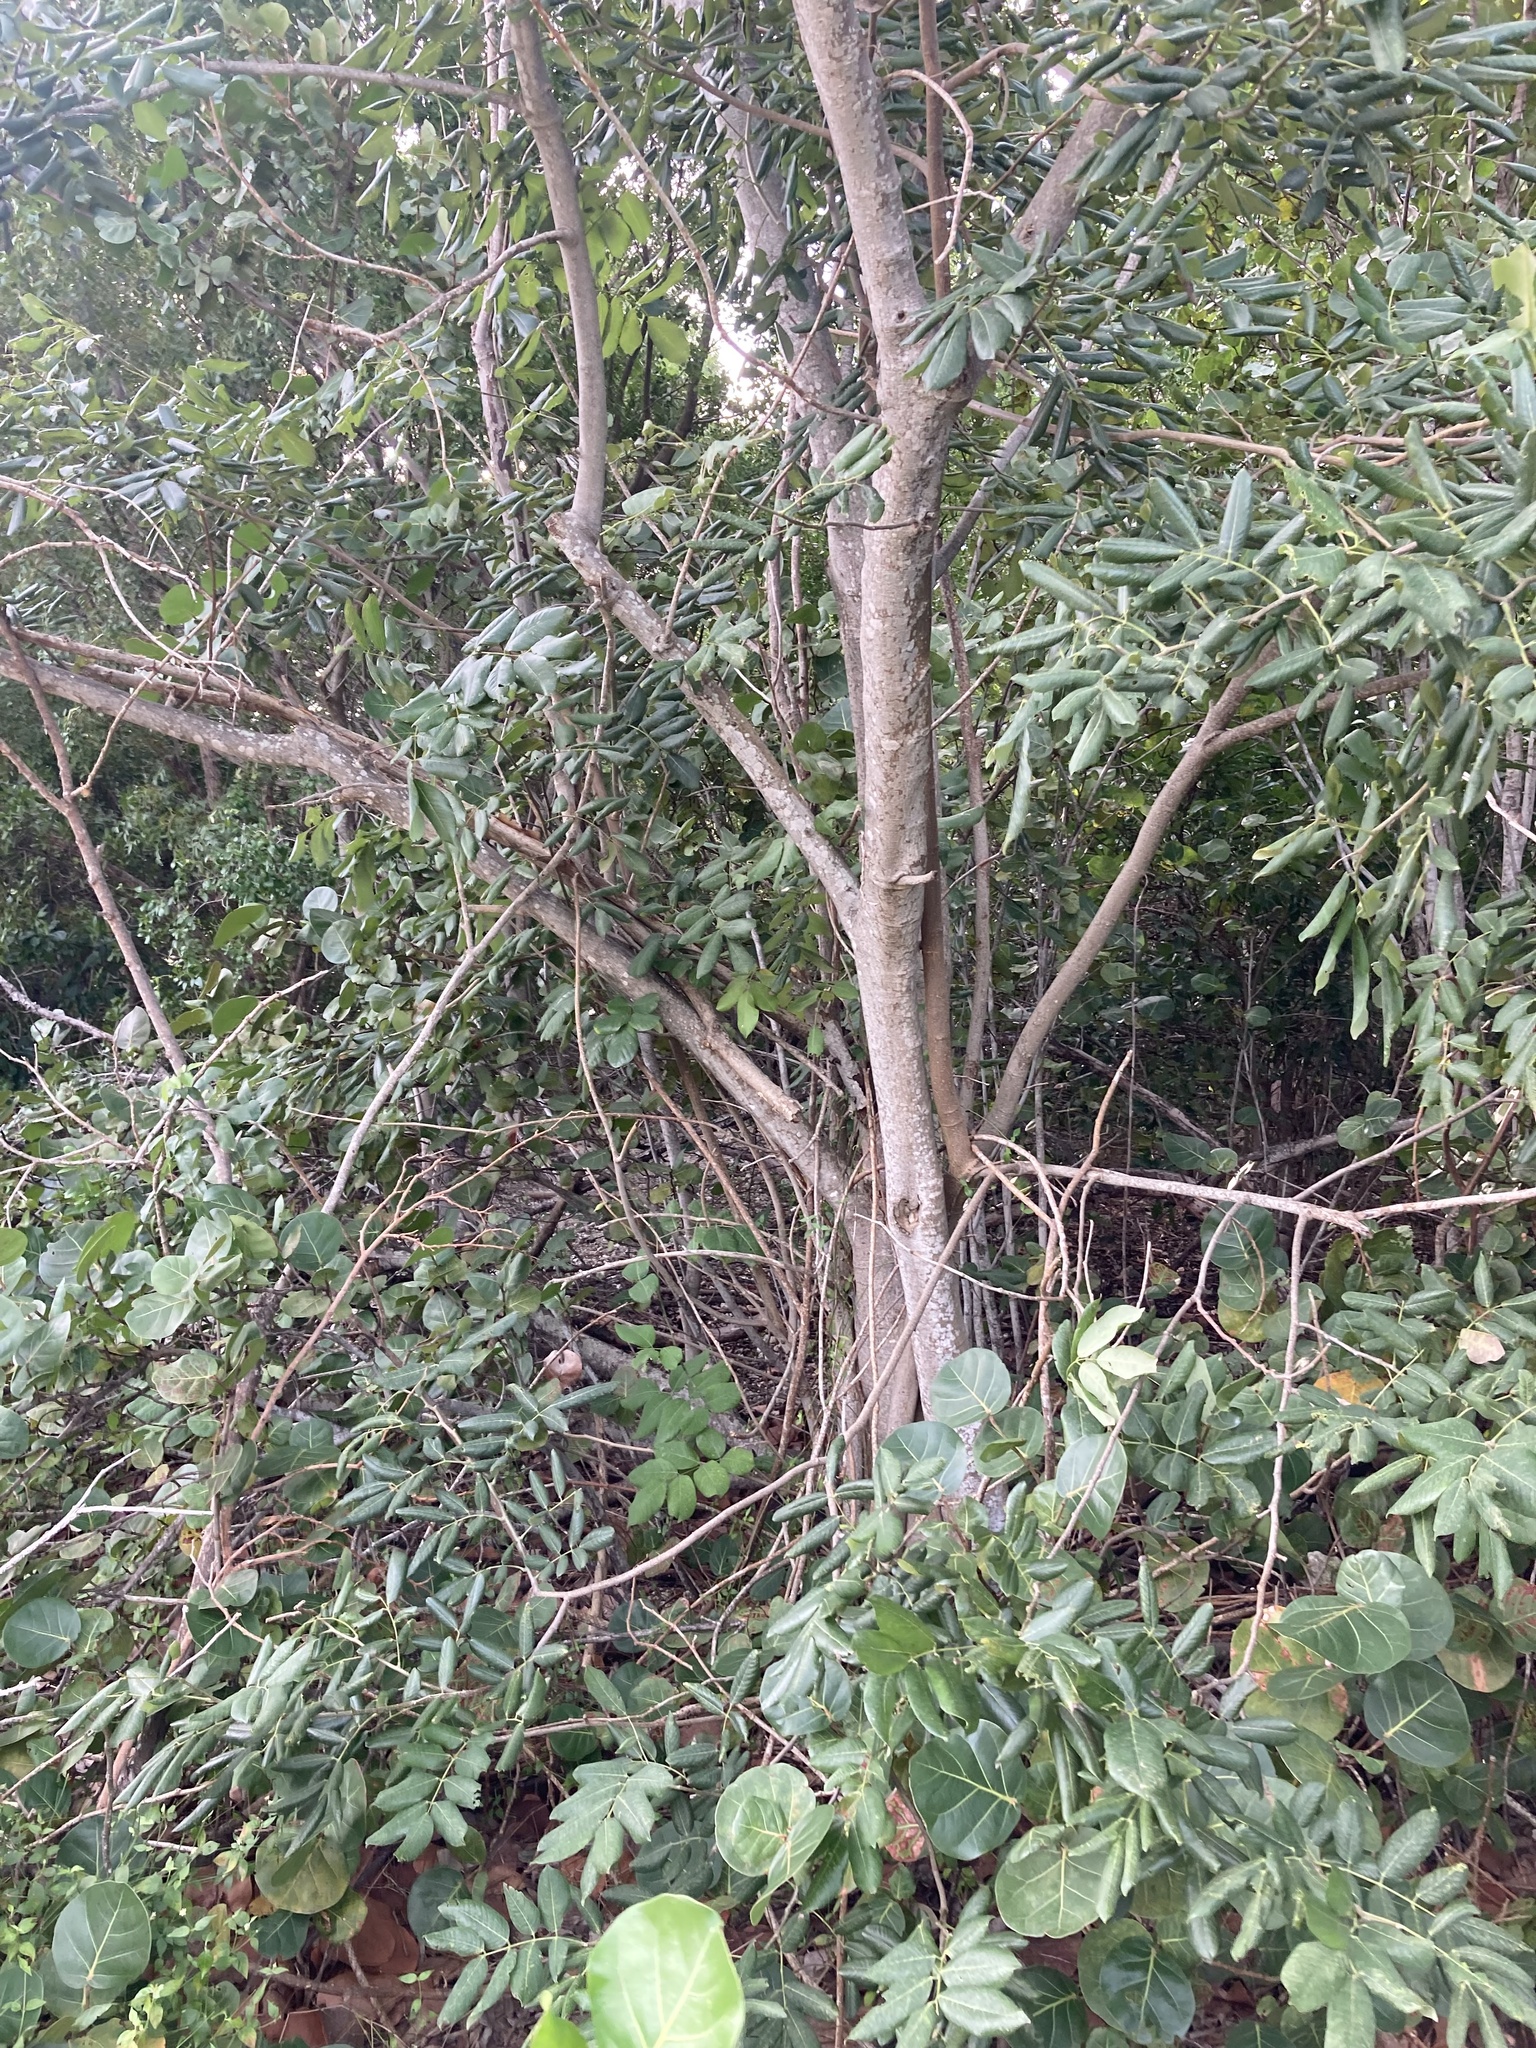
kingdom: Plantae
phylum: Tracheophyta
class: Magnoliopsida
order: Fabales
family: Fabaceae
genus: Piscidia
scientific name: Piscidia piscipula
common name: Florida fishpoison tree
